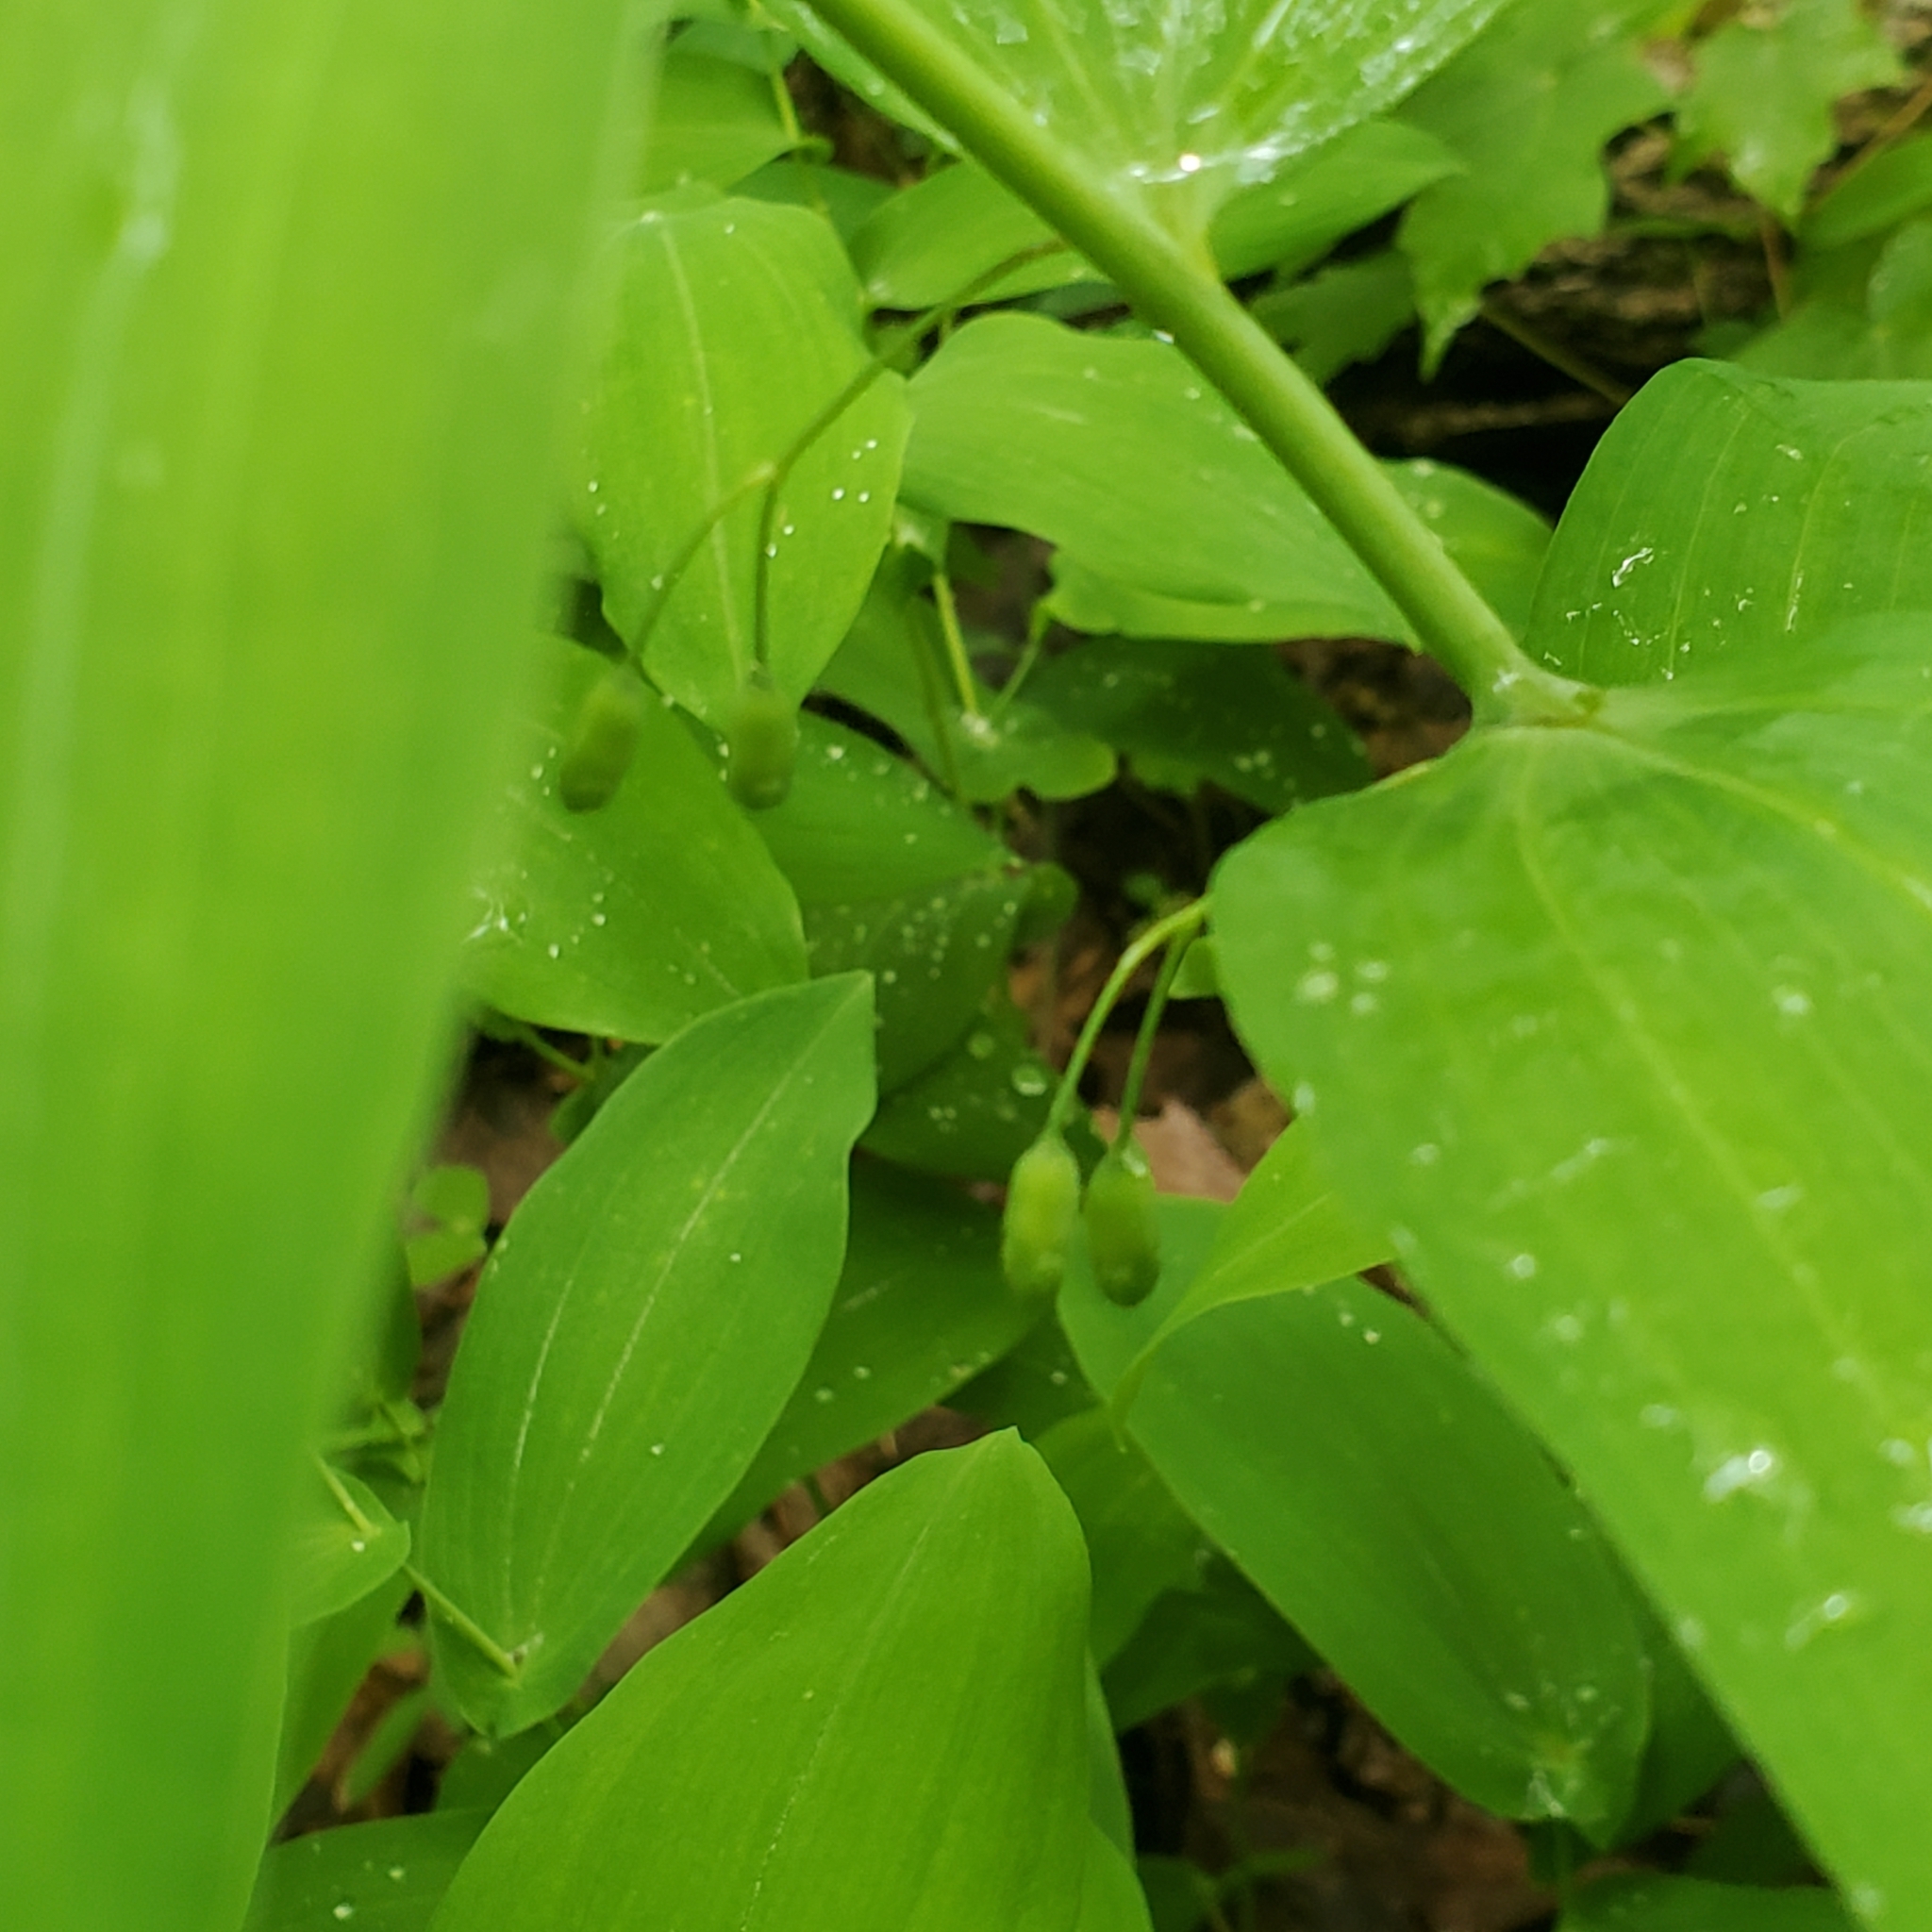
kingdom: Plantae
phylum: Tracheophyta
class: Liliopsida
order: Asparagales
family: Asparagaceae
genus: Polygonatum
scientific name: Polygonatum biflorum
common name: American solomon's-seal
